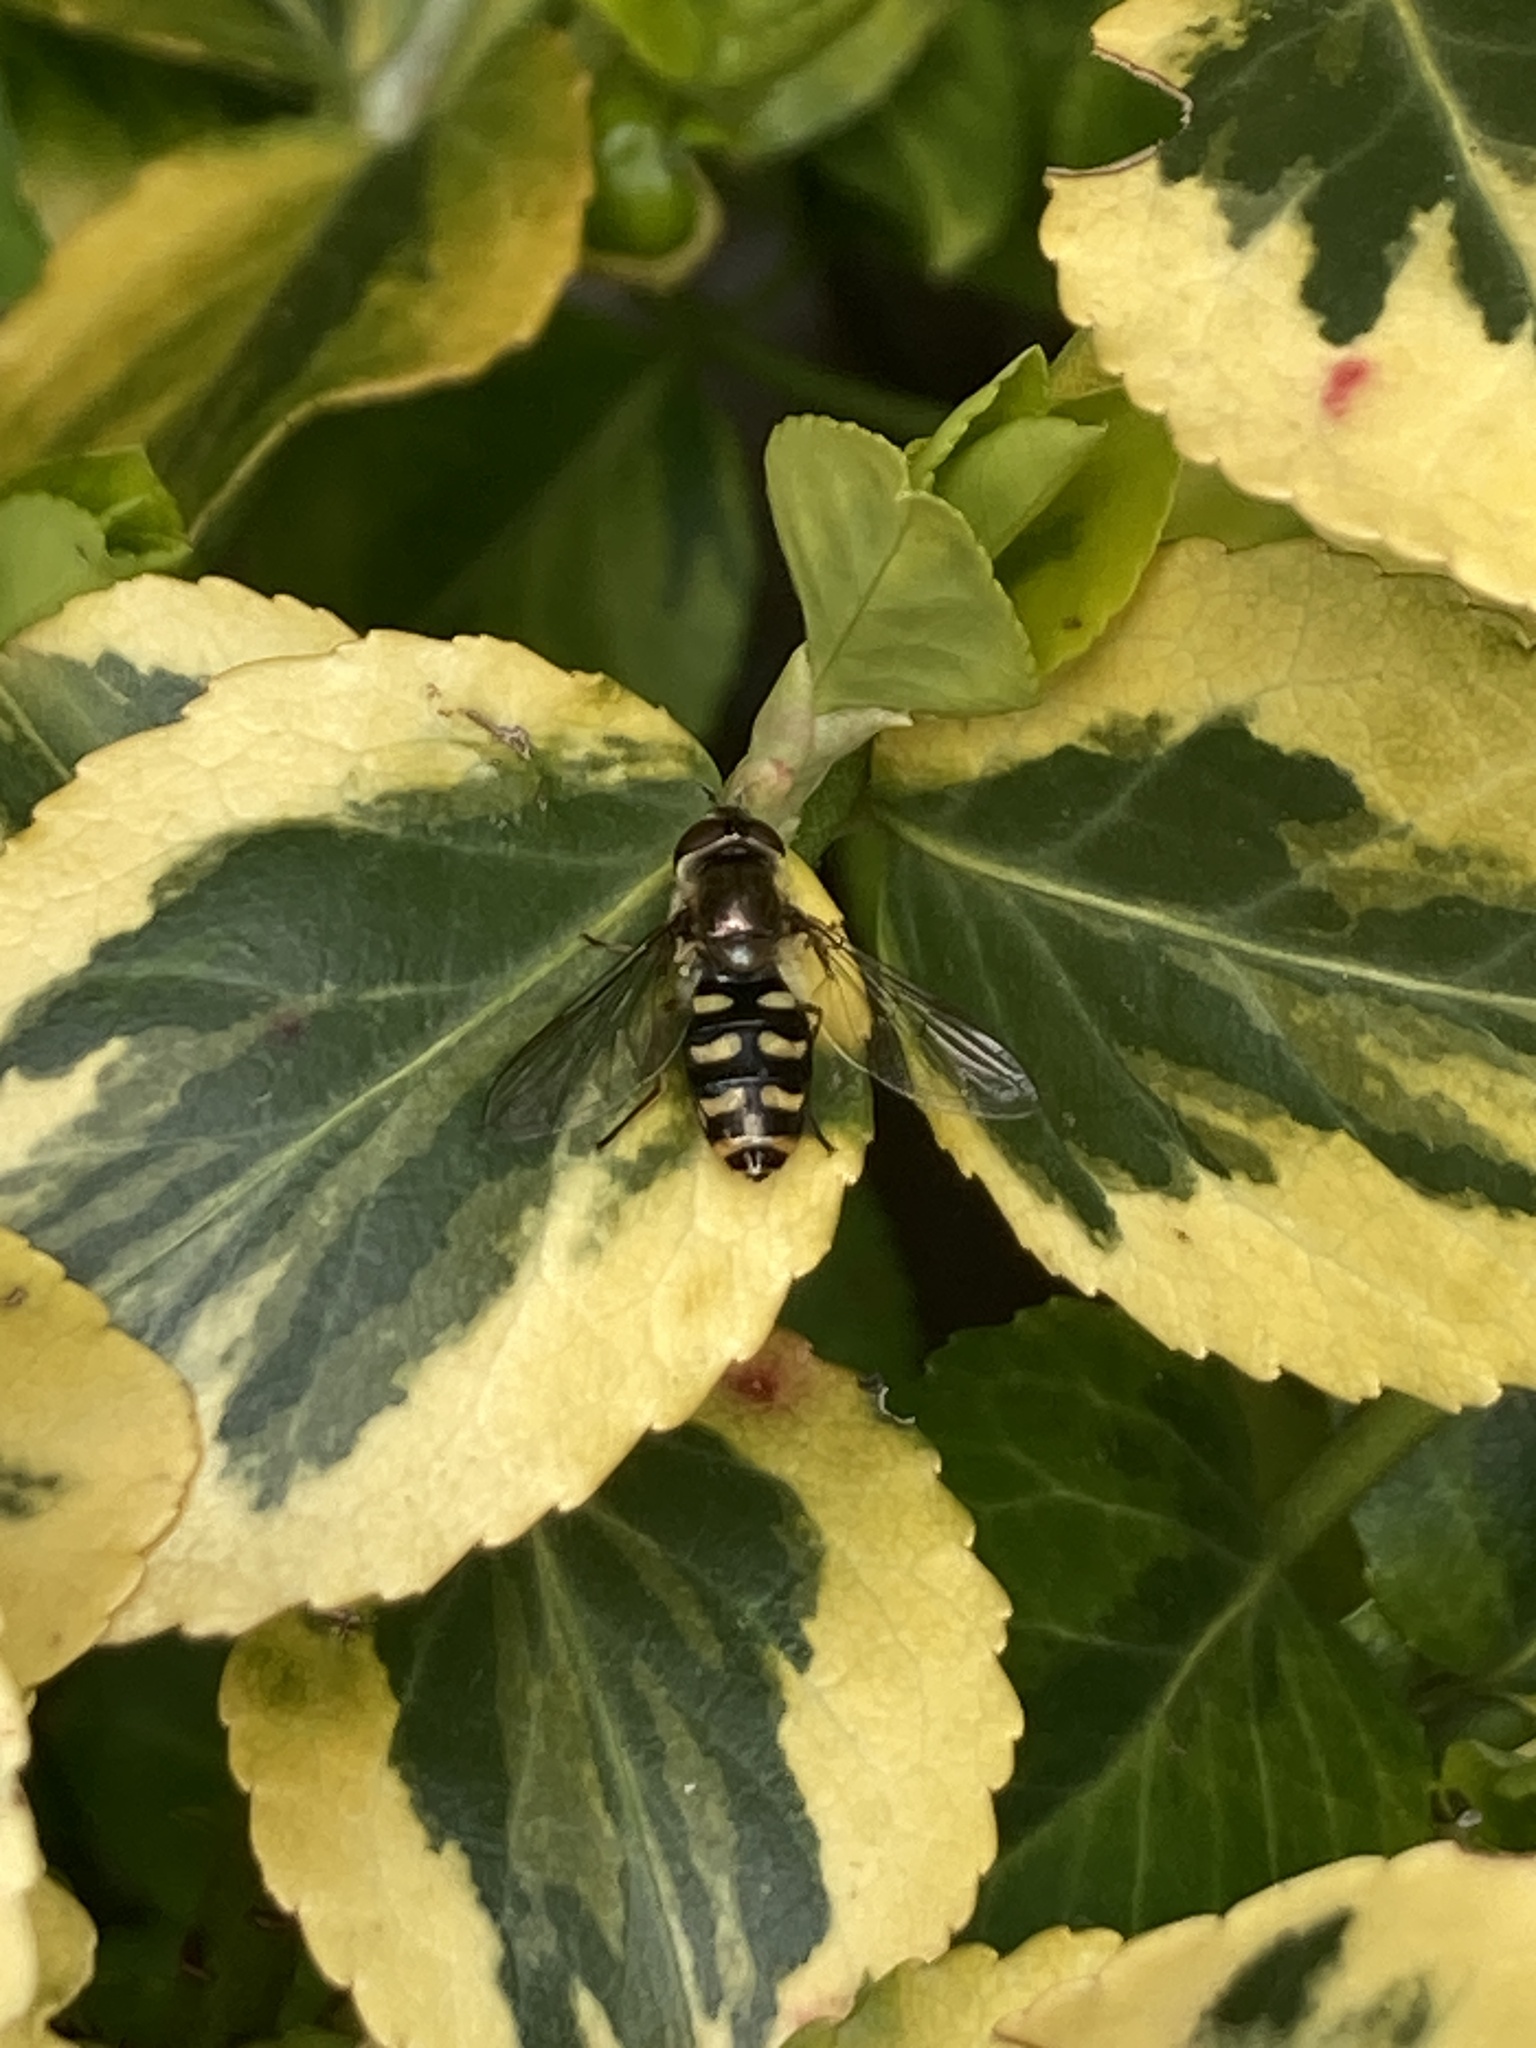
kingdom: Animalia
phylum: Arthropoda
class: Insecta
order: Diptera
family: Syrphidae
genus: Eupeodes
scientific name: Eupeodes luniger
